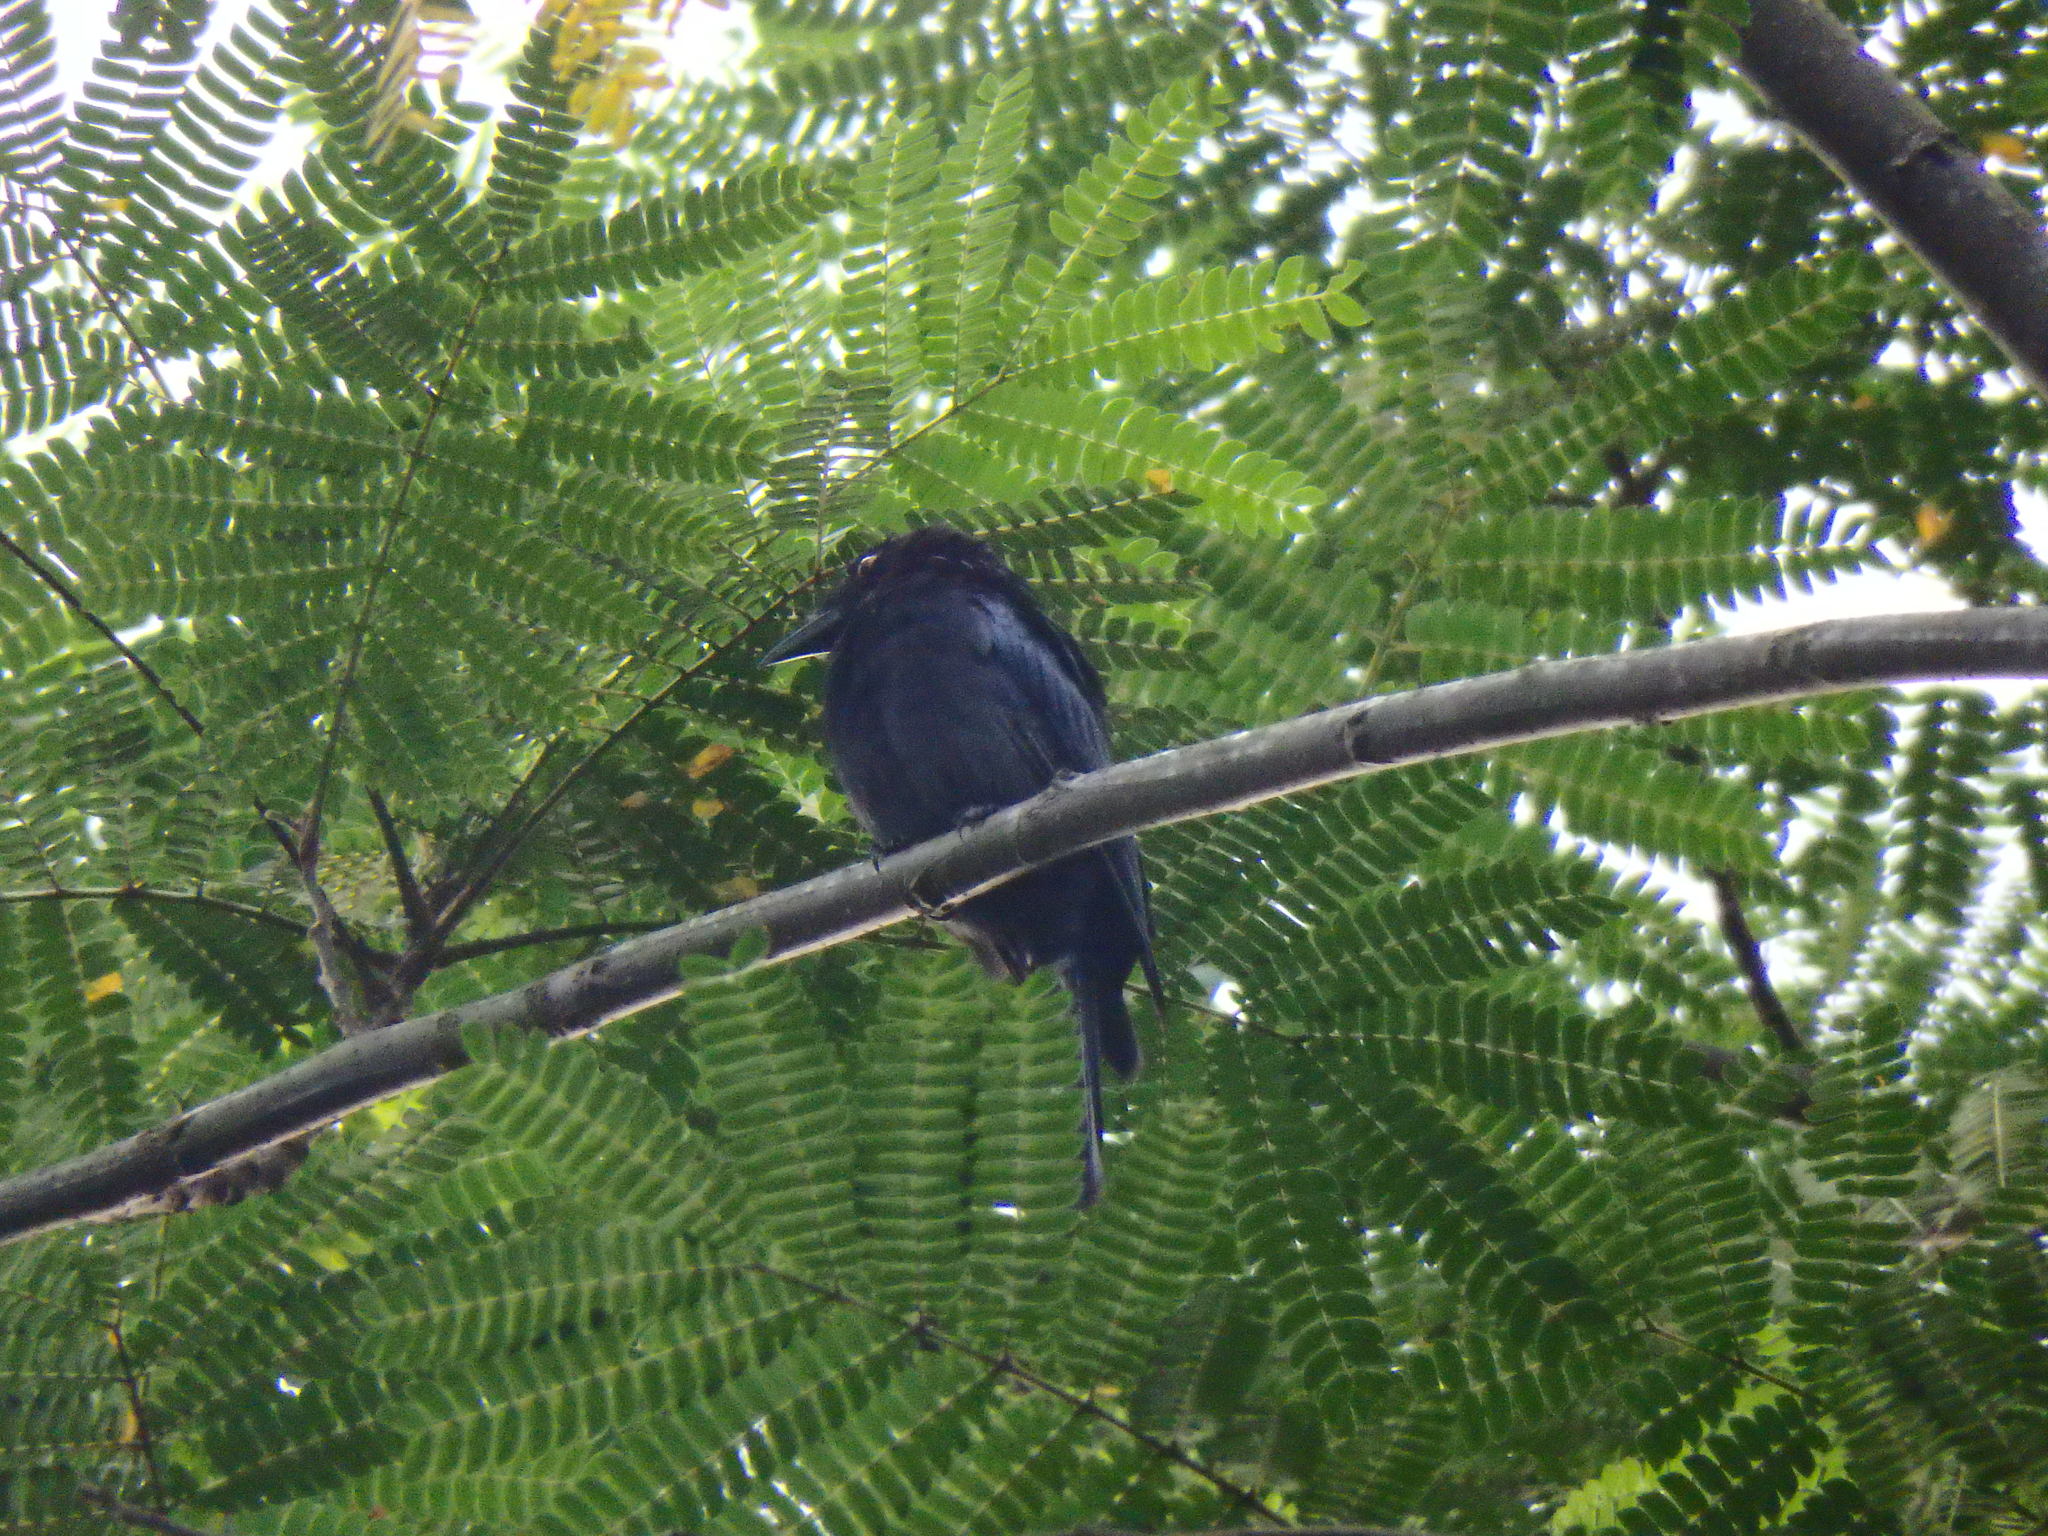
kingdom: Animalia
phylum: Chordata
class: Aves
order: Passeriformes
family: Dicruridae
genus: Dicrurus
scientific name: Dicrurus paradiseus
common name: Greater racket-tailed drongo
